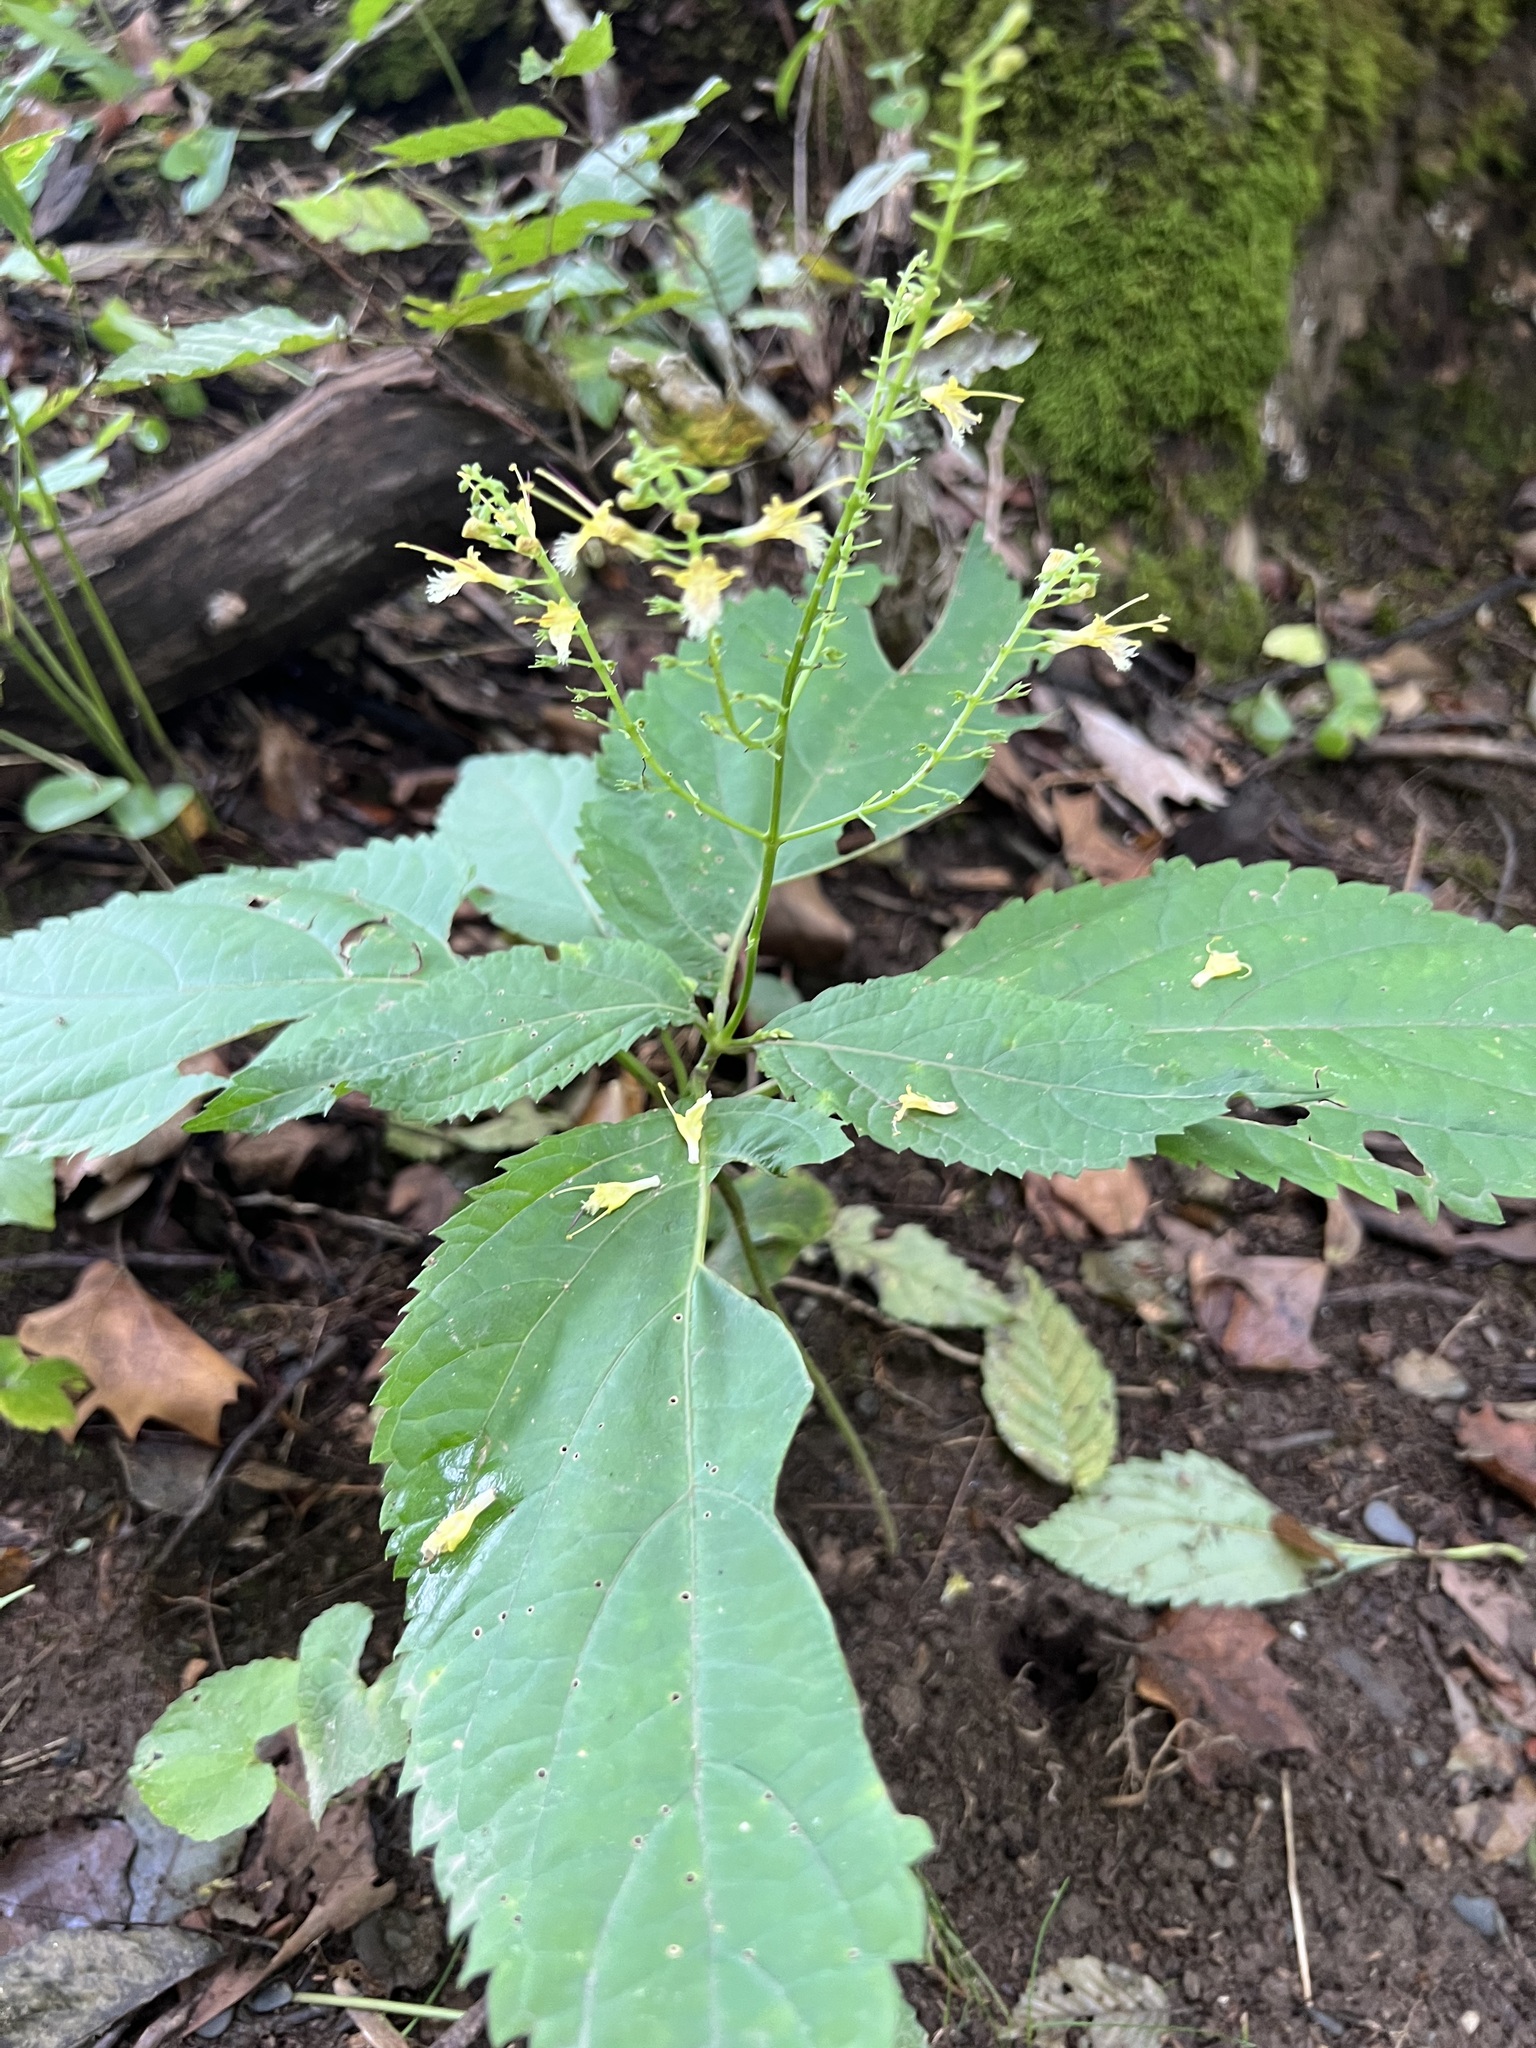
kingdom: Plantae
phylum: Tracheophyta
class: Magnoliopsida
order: Lamiales
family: Lamiaceae
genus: Collinsonia
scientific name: Collinsonia canadensis
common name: Northern horsebalm
